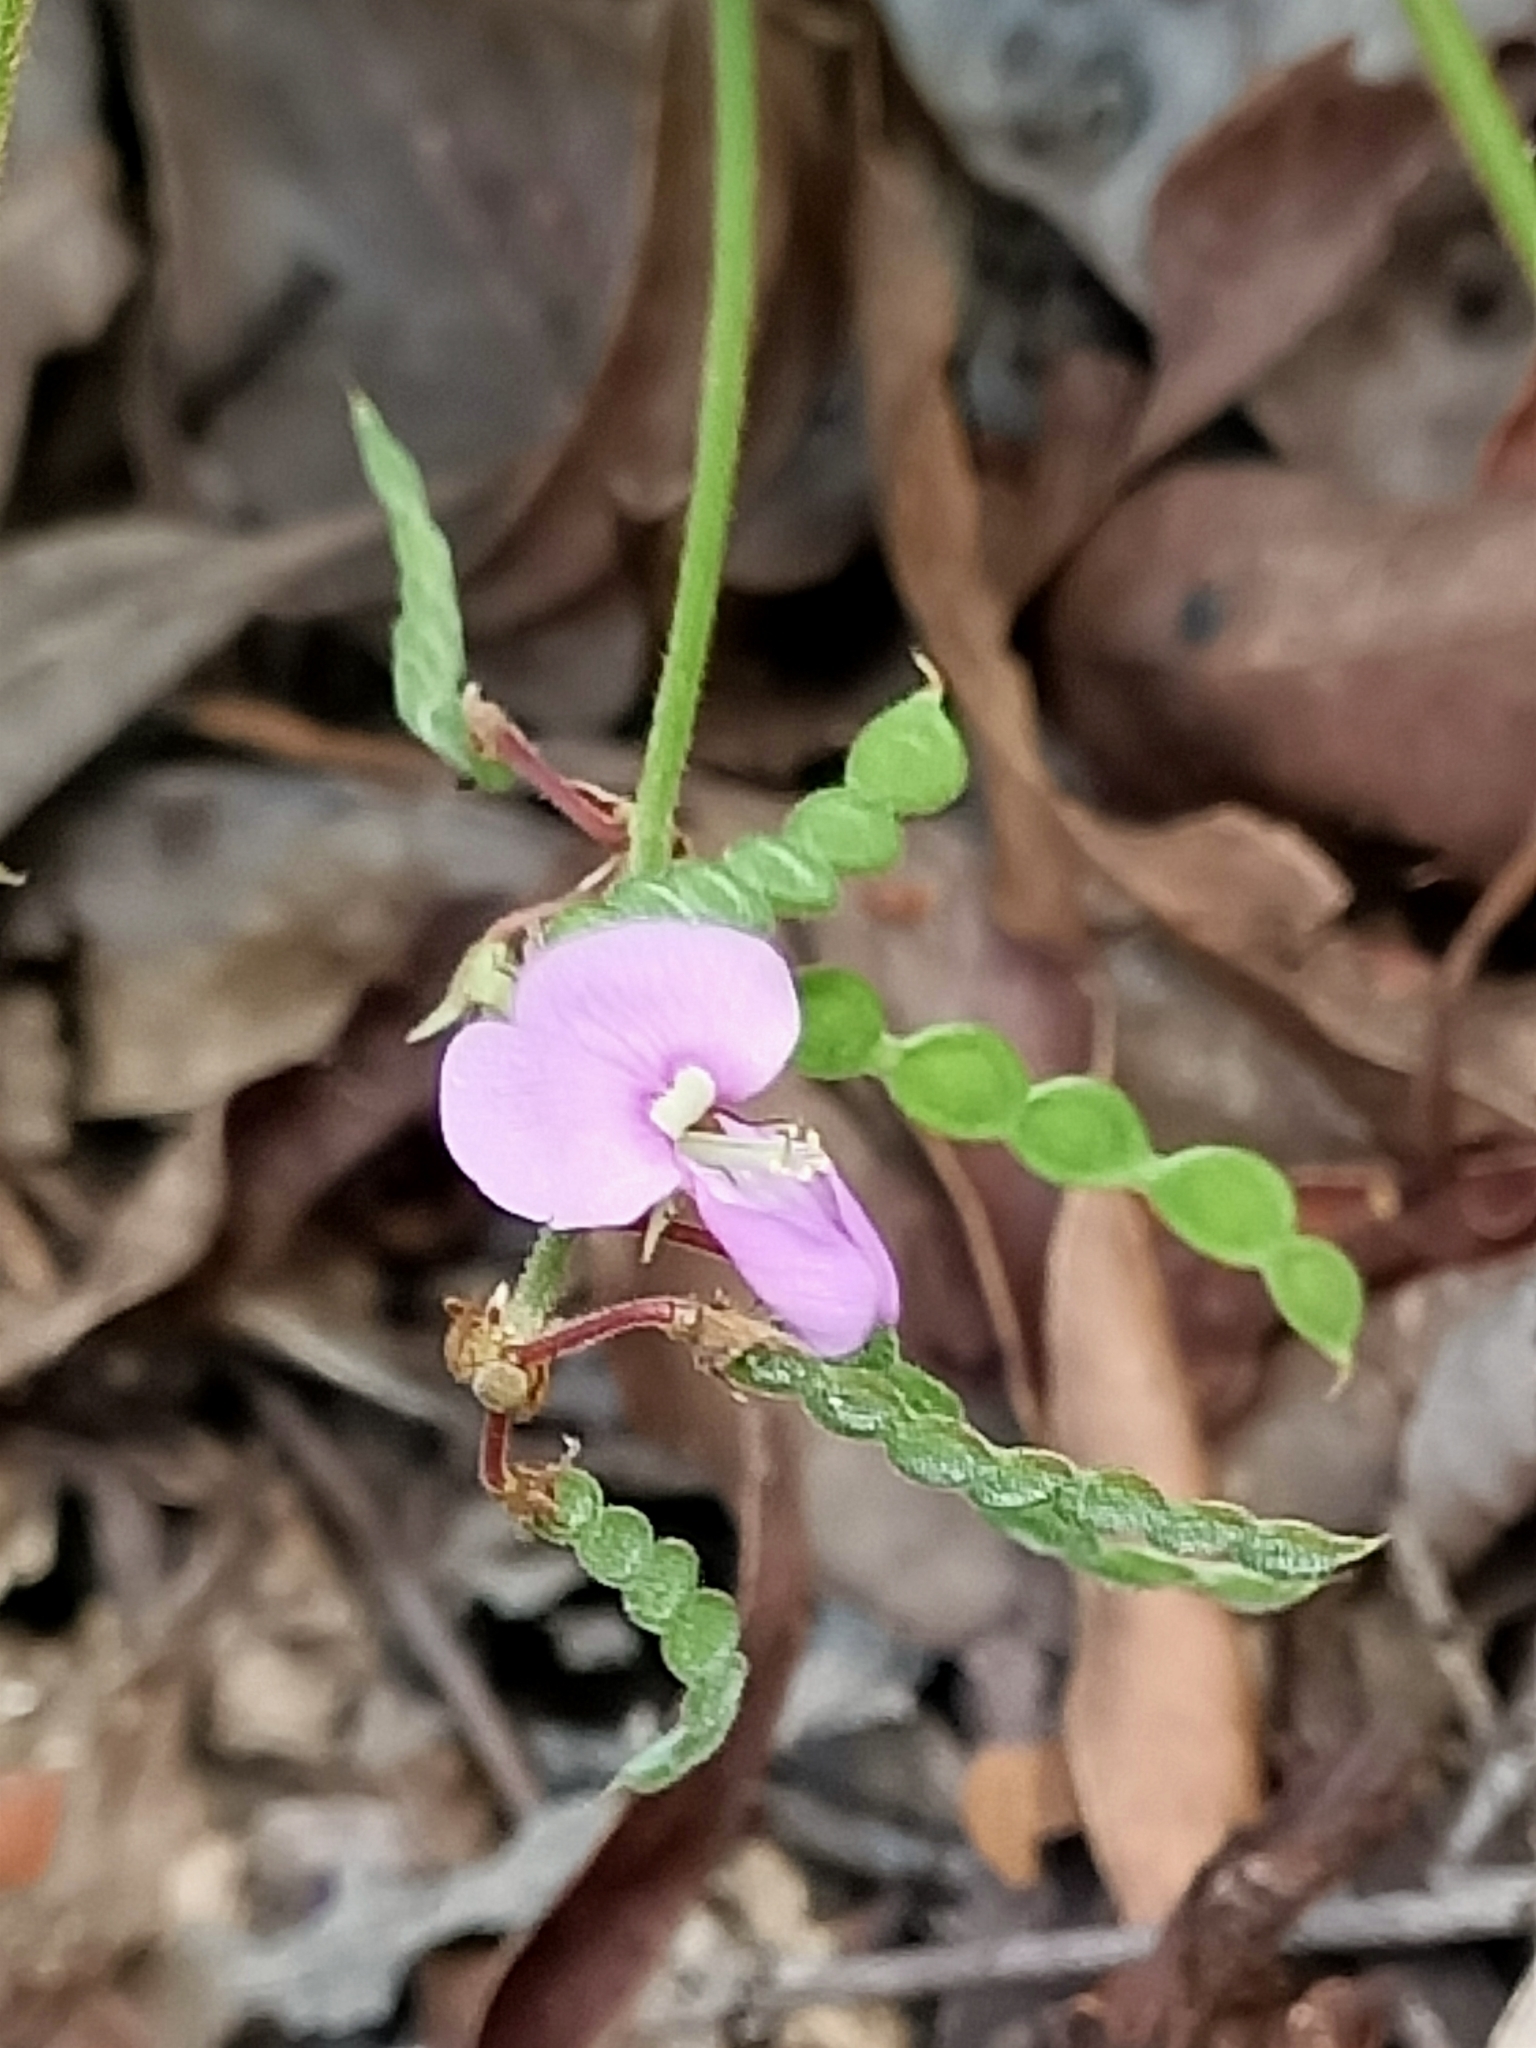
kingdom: Plantae
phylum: Tracheophyta
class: Magnoliopsida
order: Fabales
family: Fabaceae
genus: Maekawaea
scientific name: Maekawaea rhytidophylla
